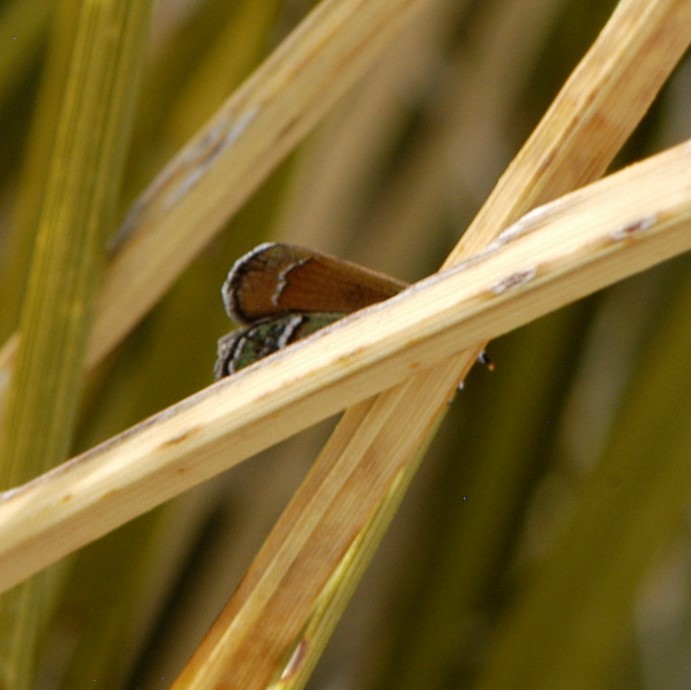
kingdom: Animalia
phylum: Arthropoda
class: Insecta
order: Lepidoptera
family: Lycaenidae
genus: Sandia
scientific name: Sandia mcfarlandi
